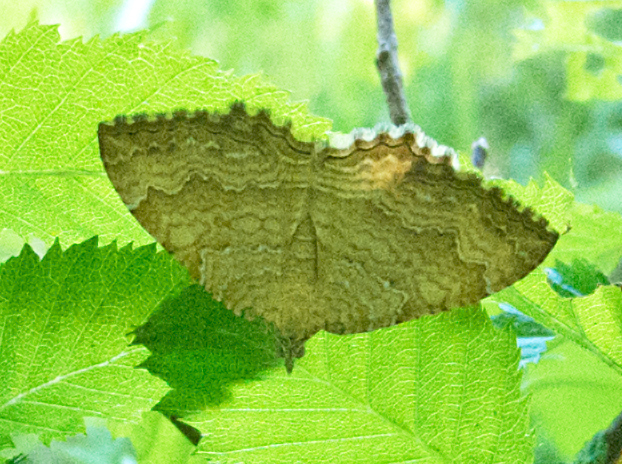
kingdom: Animalia
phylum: Arthropoda
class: Insecta
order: Lepidoptera
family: Geometridae
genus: Camptogramma
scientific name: Camptogramma bilineata
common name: Yellow shell
